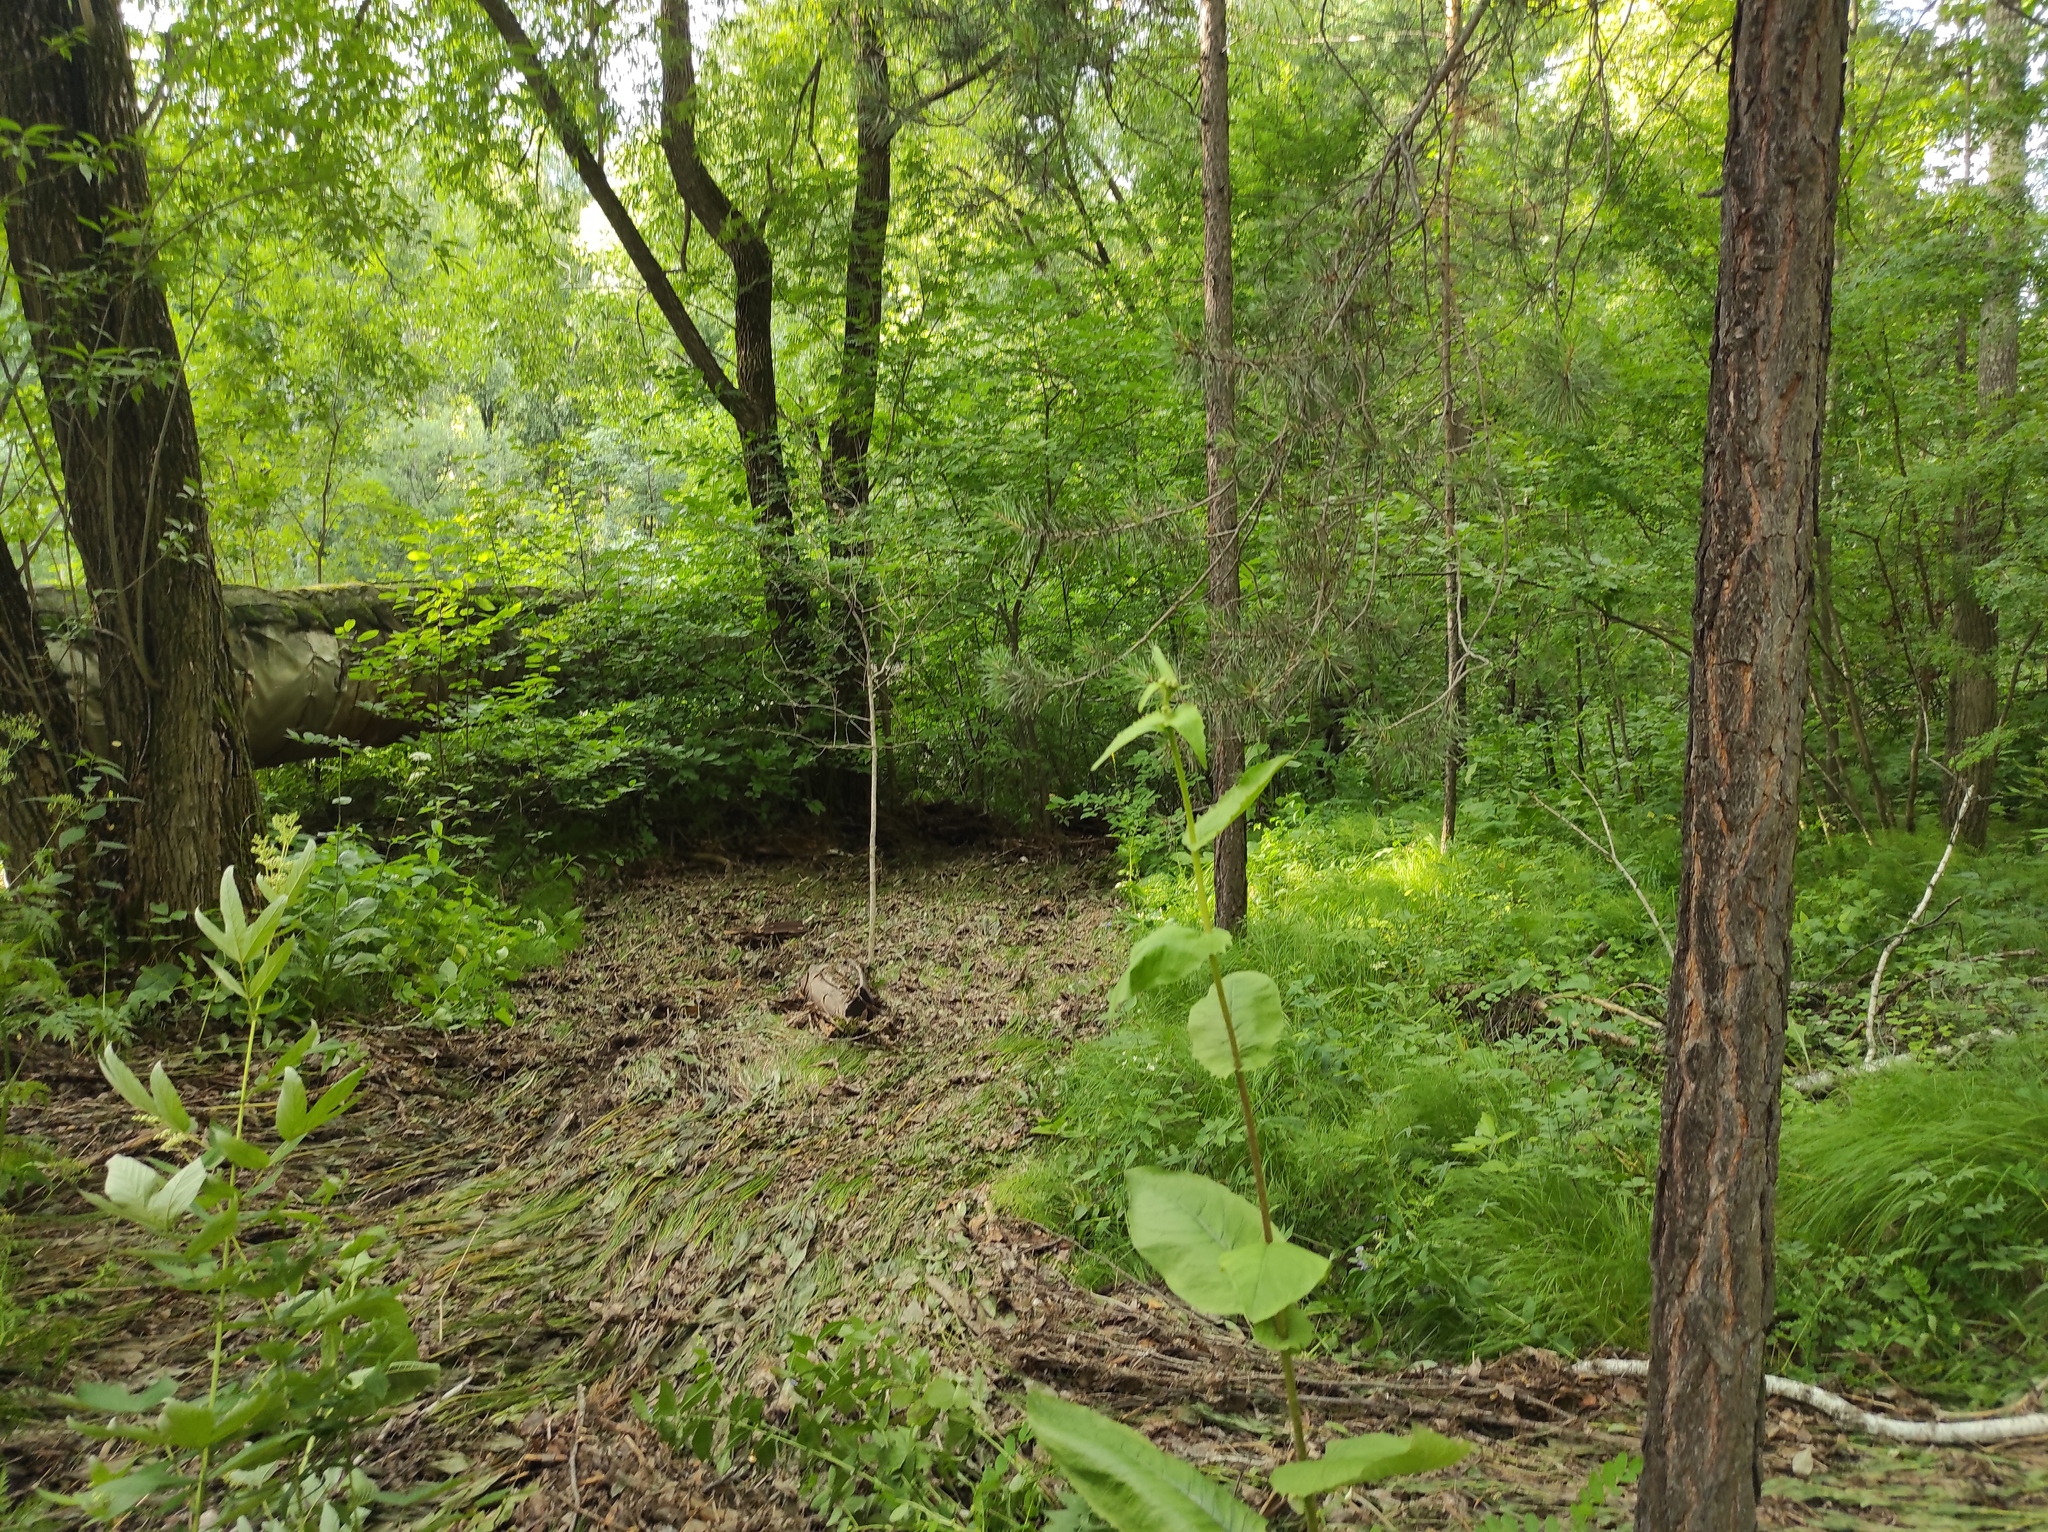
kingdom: Plantae
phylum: Tracheophyta
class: Pinopsida
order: Pinales
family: Pinaceae
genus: Pinus
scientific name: Pinus sylvestris
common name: Scots pine
